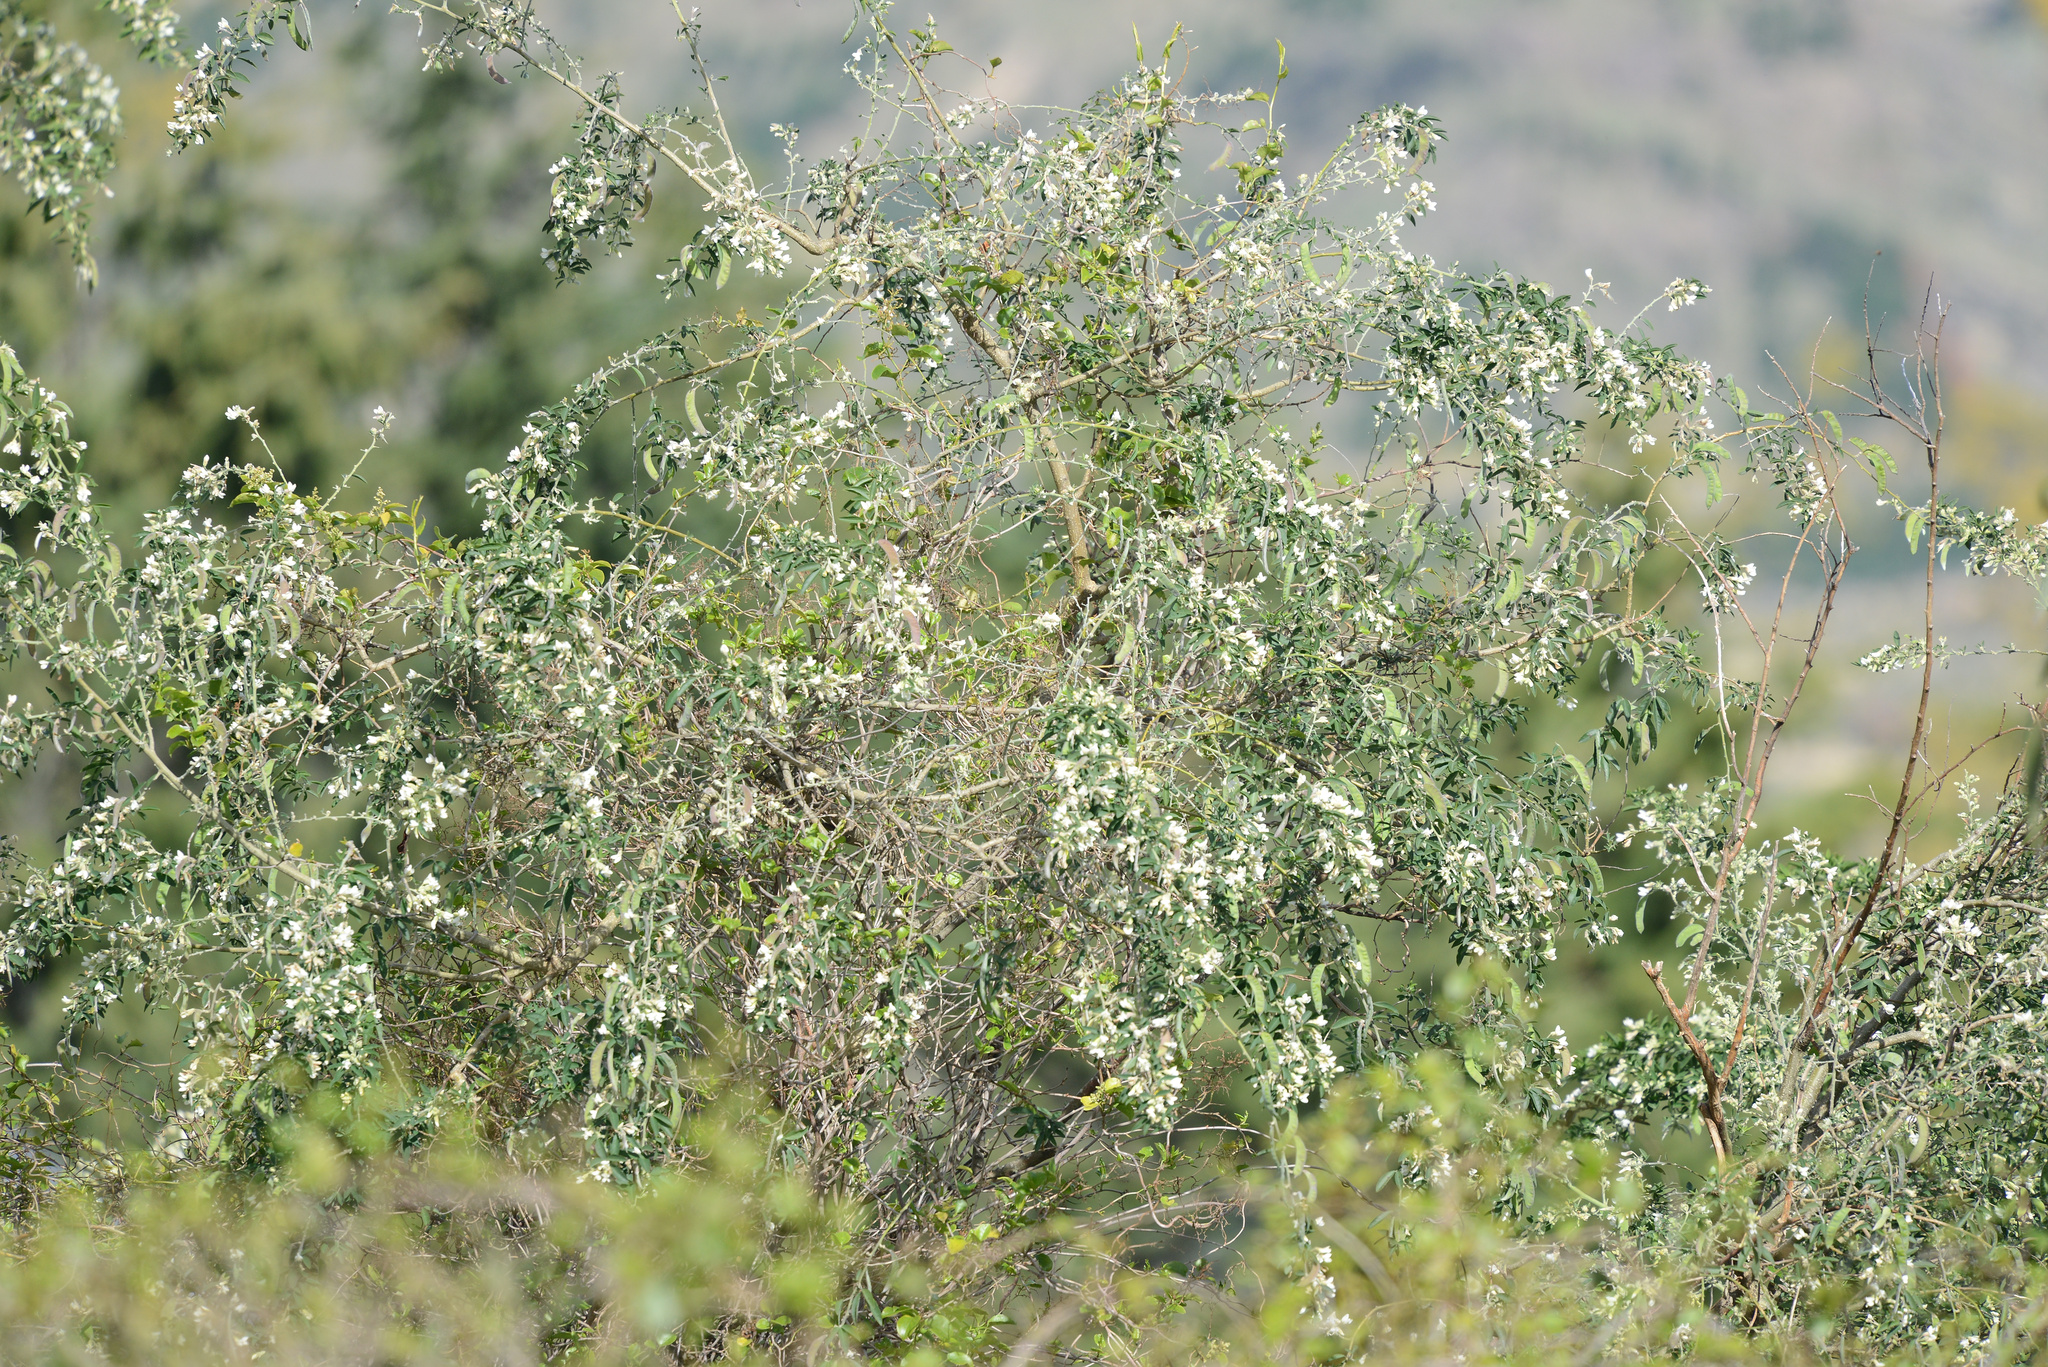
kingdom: Plantae
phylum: Tracheophyta
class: Magnoliopsida
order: Fabales
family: Fabaceae
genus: Chamaecytisus
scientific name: Chamaecytisus prolifer
